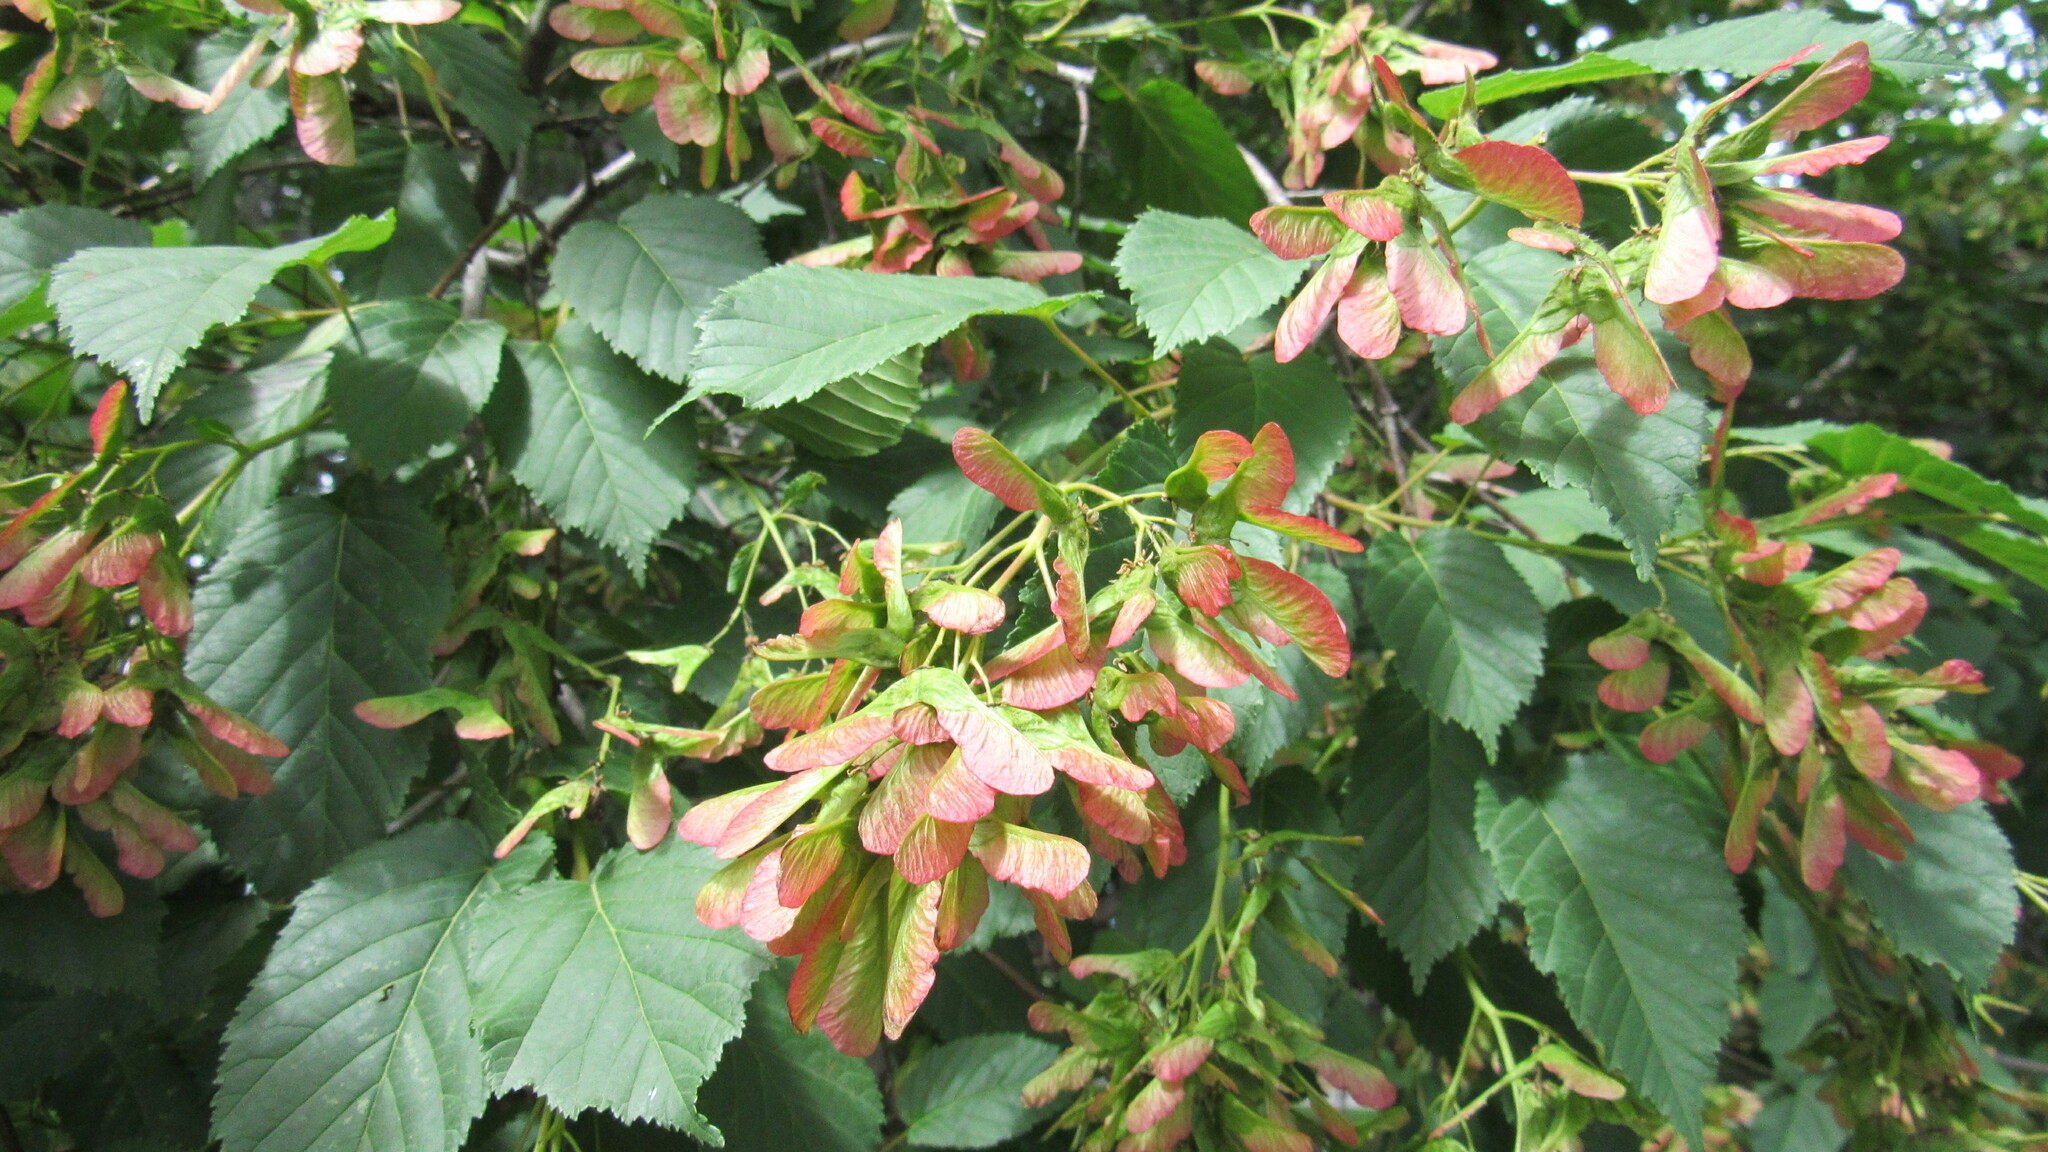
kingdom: Plantae
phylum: Tracheophyta
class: Magnoliopsida
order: Sapindales
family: Sapindaceae
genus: Acer
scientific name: Acer tataricum
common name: Tartar maple
